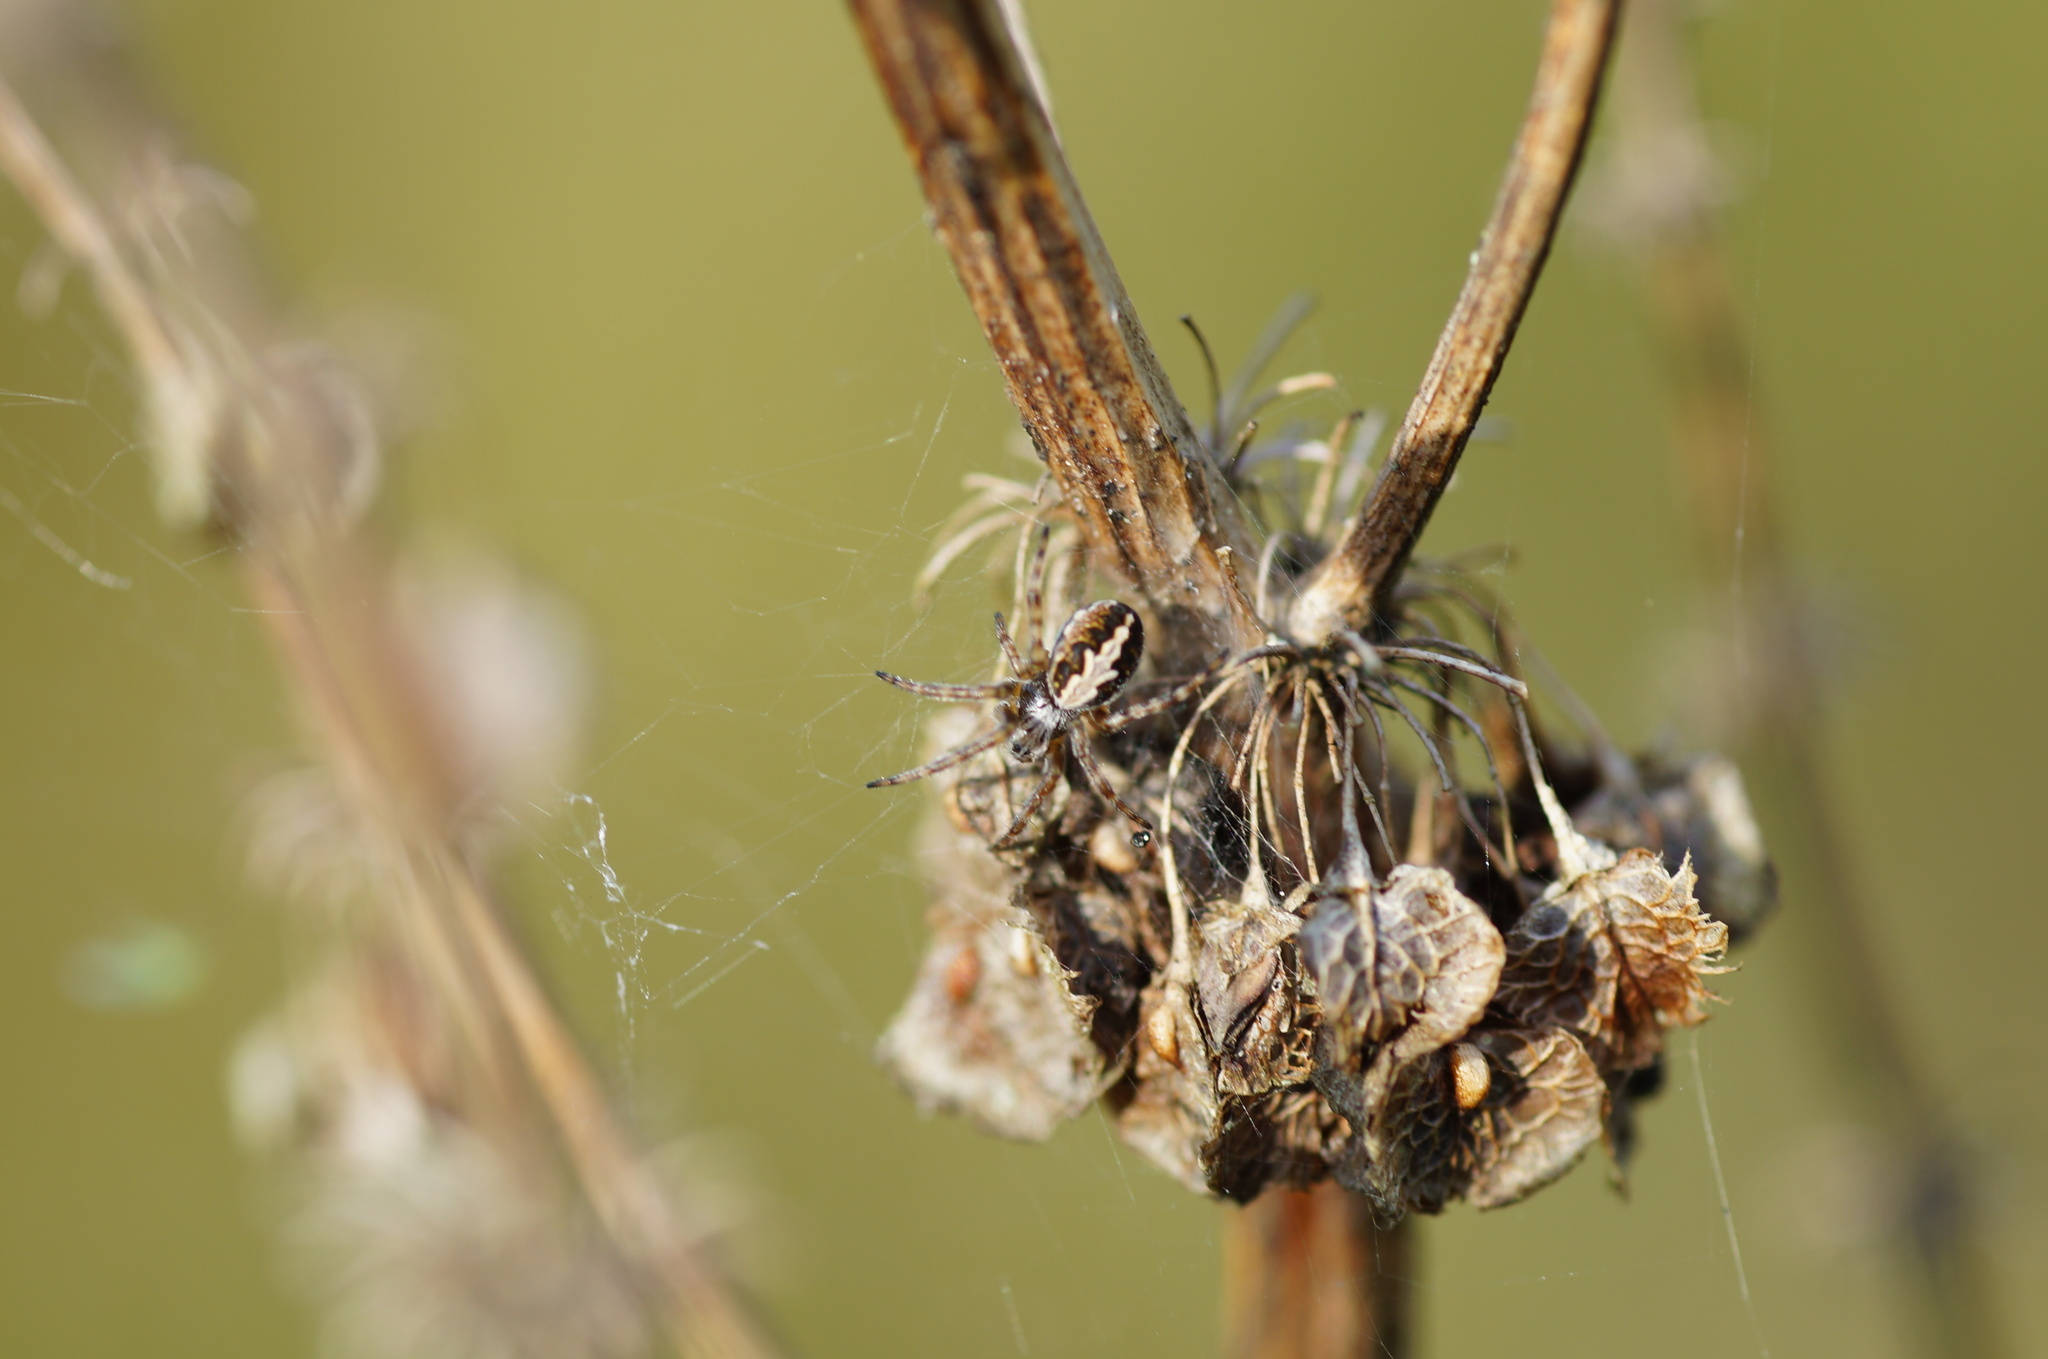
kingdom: Animalia
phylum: Arthropoda
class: Arachnida
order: Araneae
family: Araneidae
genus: Aculepeira
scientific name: Aculepeira ceropegia
